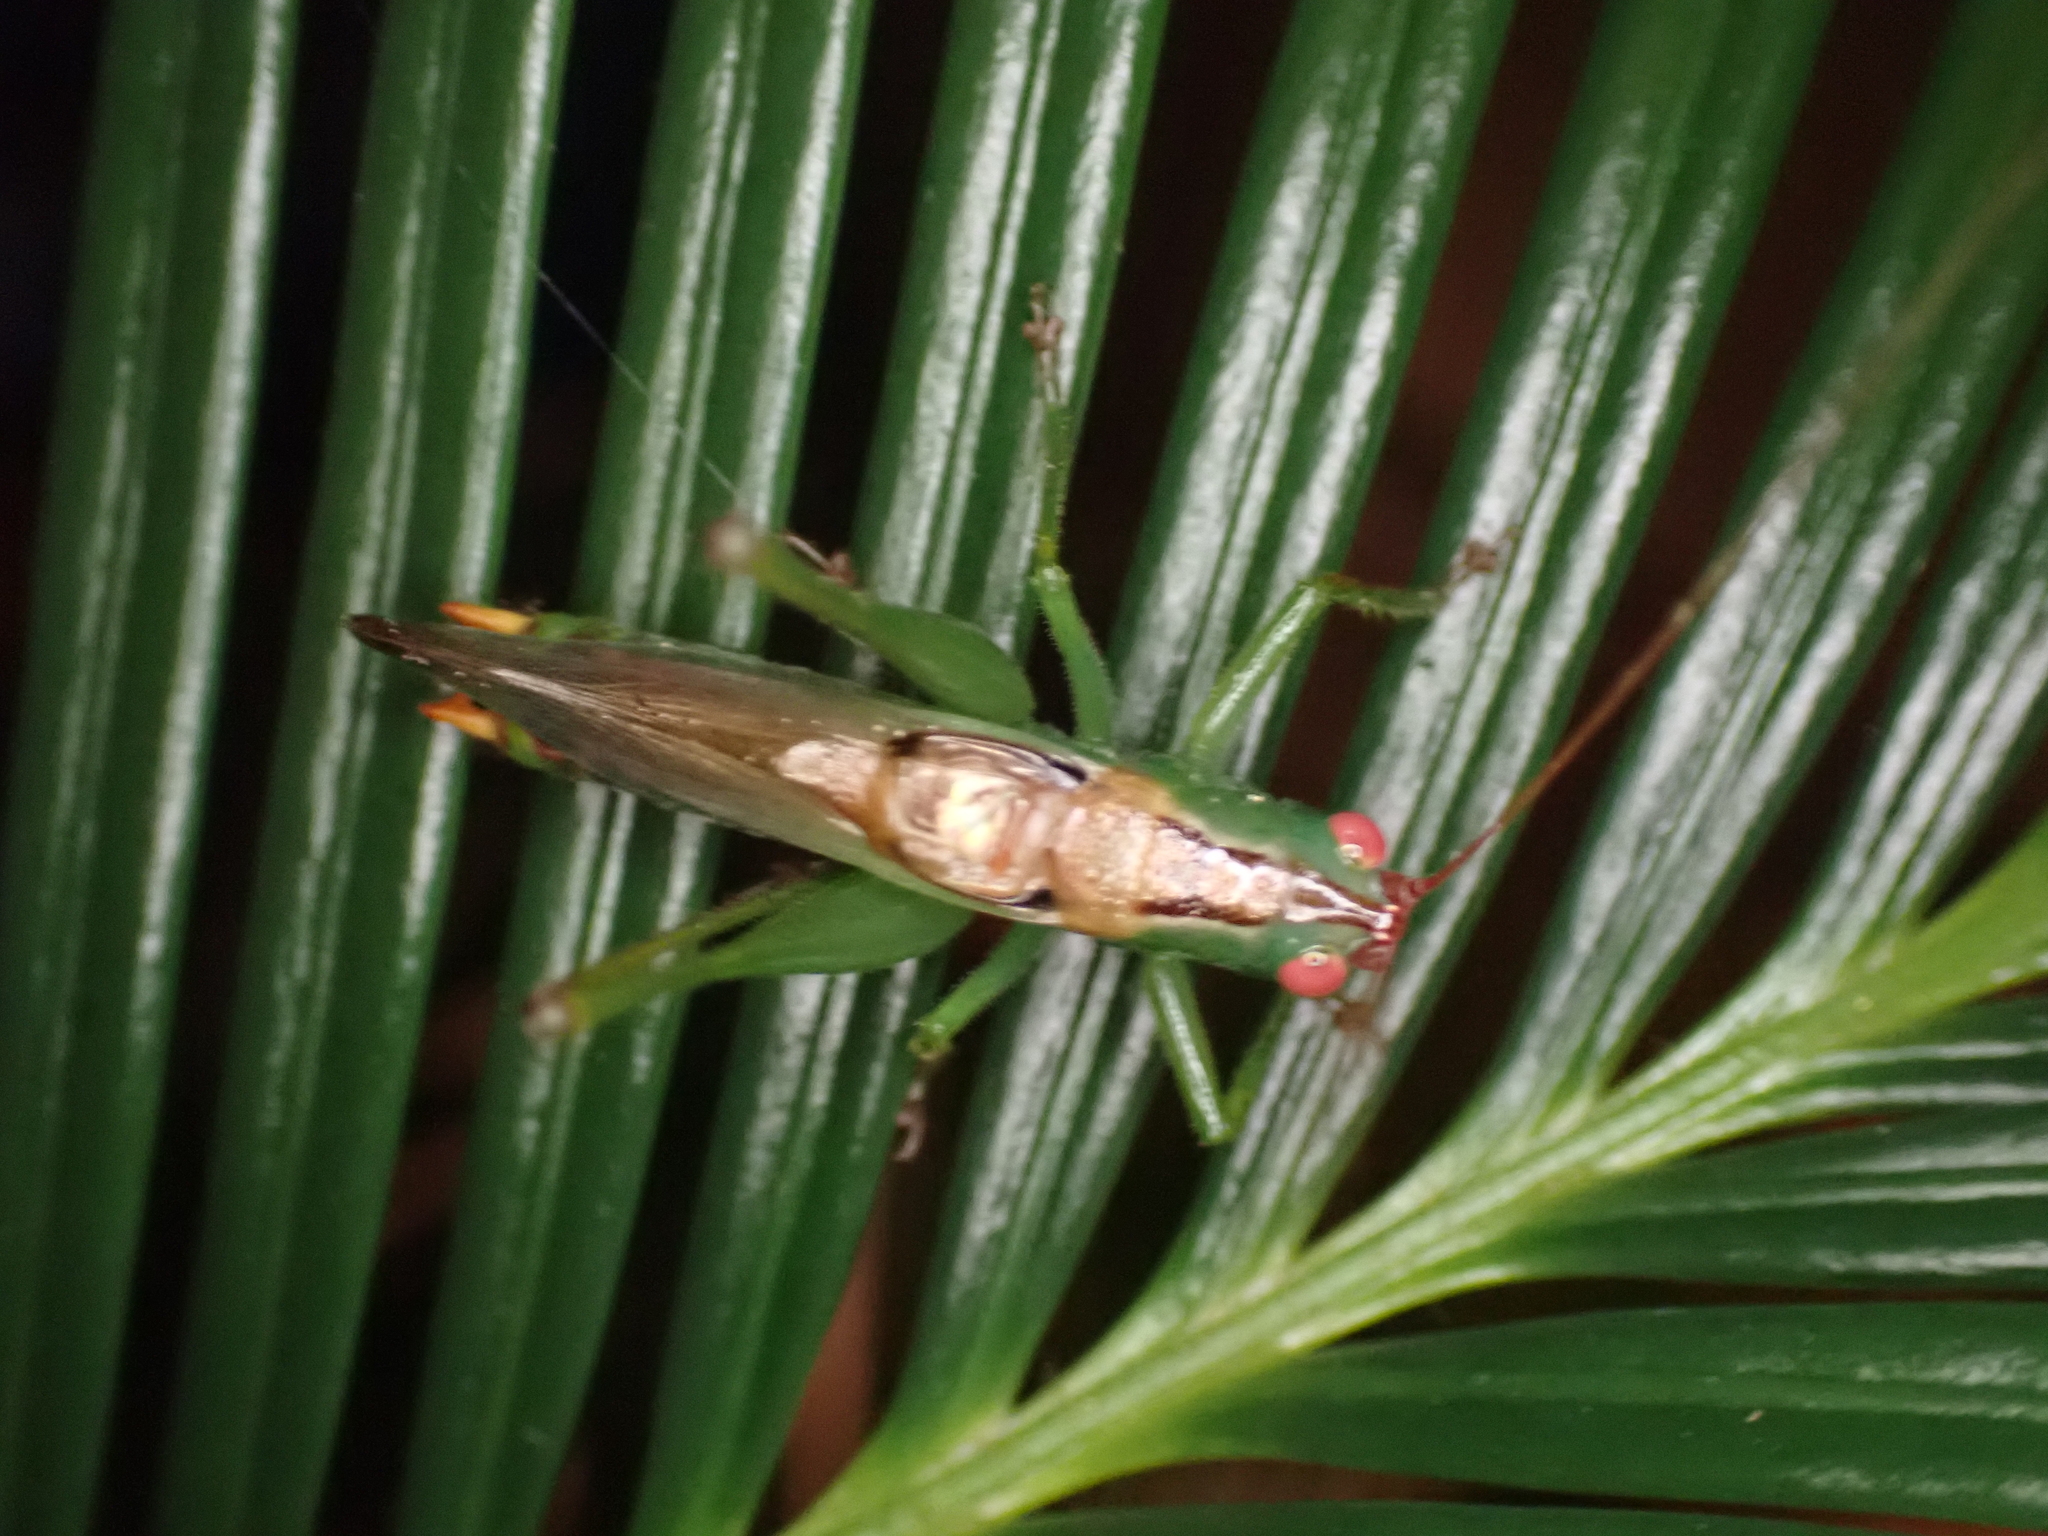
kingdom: Animalia
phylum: Arthropoda
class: Insecta
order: Orthoptera
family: Tettigoniidae
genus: Orchelimum
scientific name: Orchelimum silvaticum
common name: Long-spurred meadow katydid
